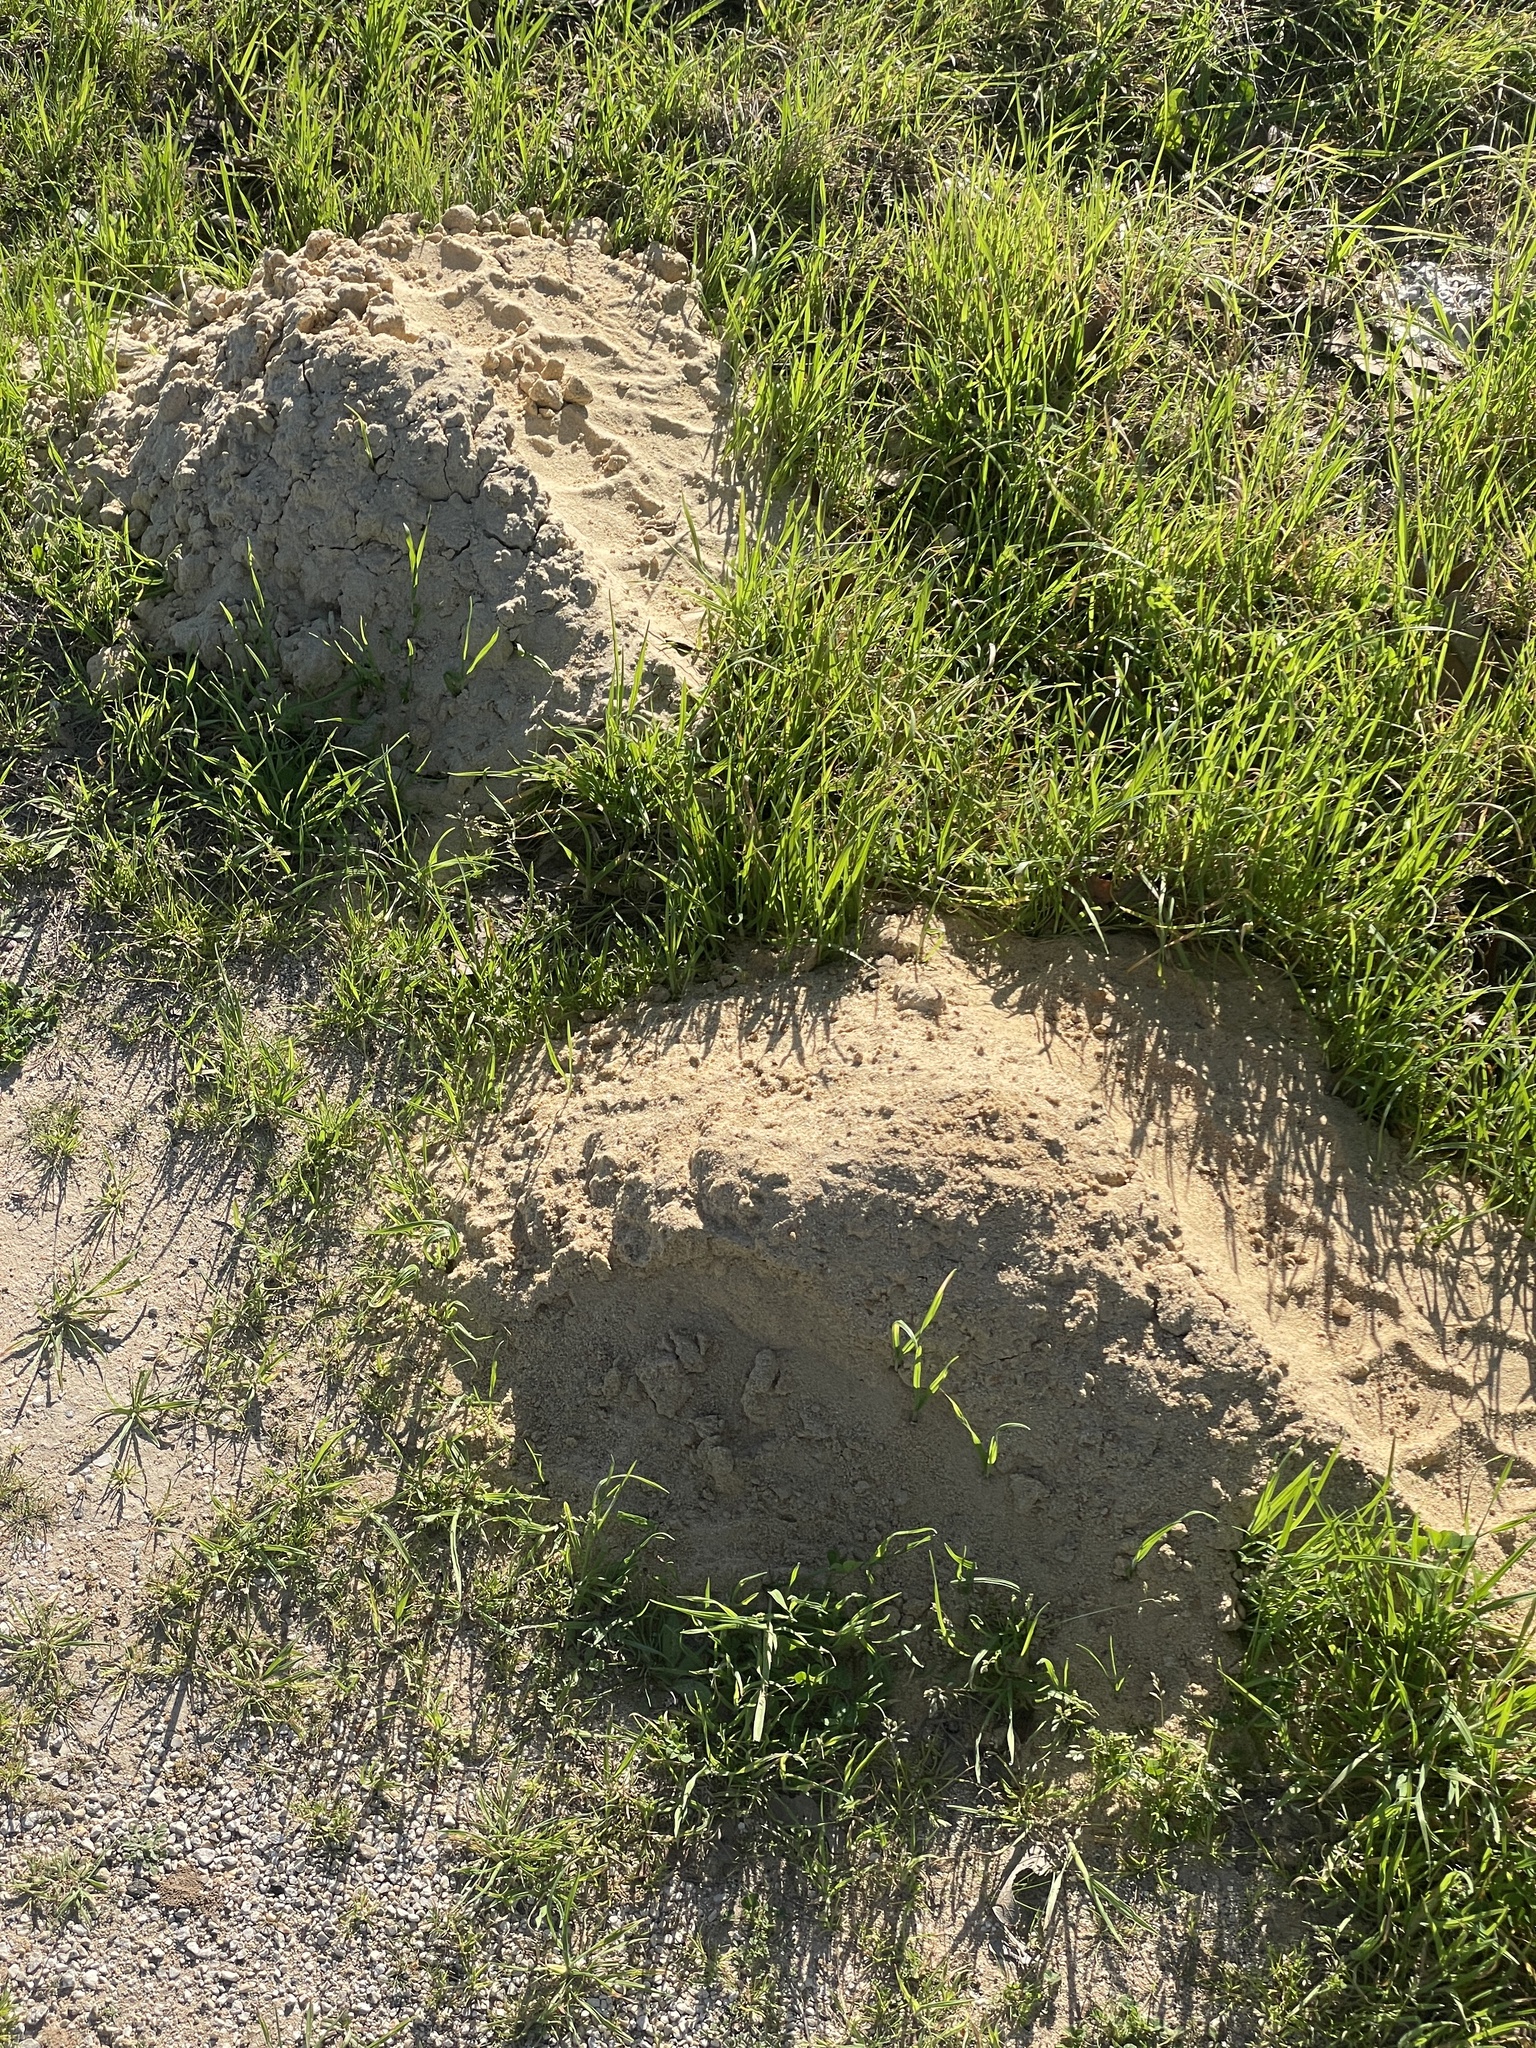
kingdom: Animalia
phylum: Chordata
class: Mammalia
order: Rodentia
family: Geomyidae
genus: Geomys
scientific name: Geomys attwateri
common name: Attwater's pocket gopher
